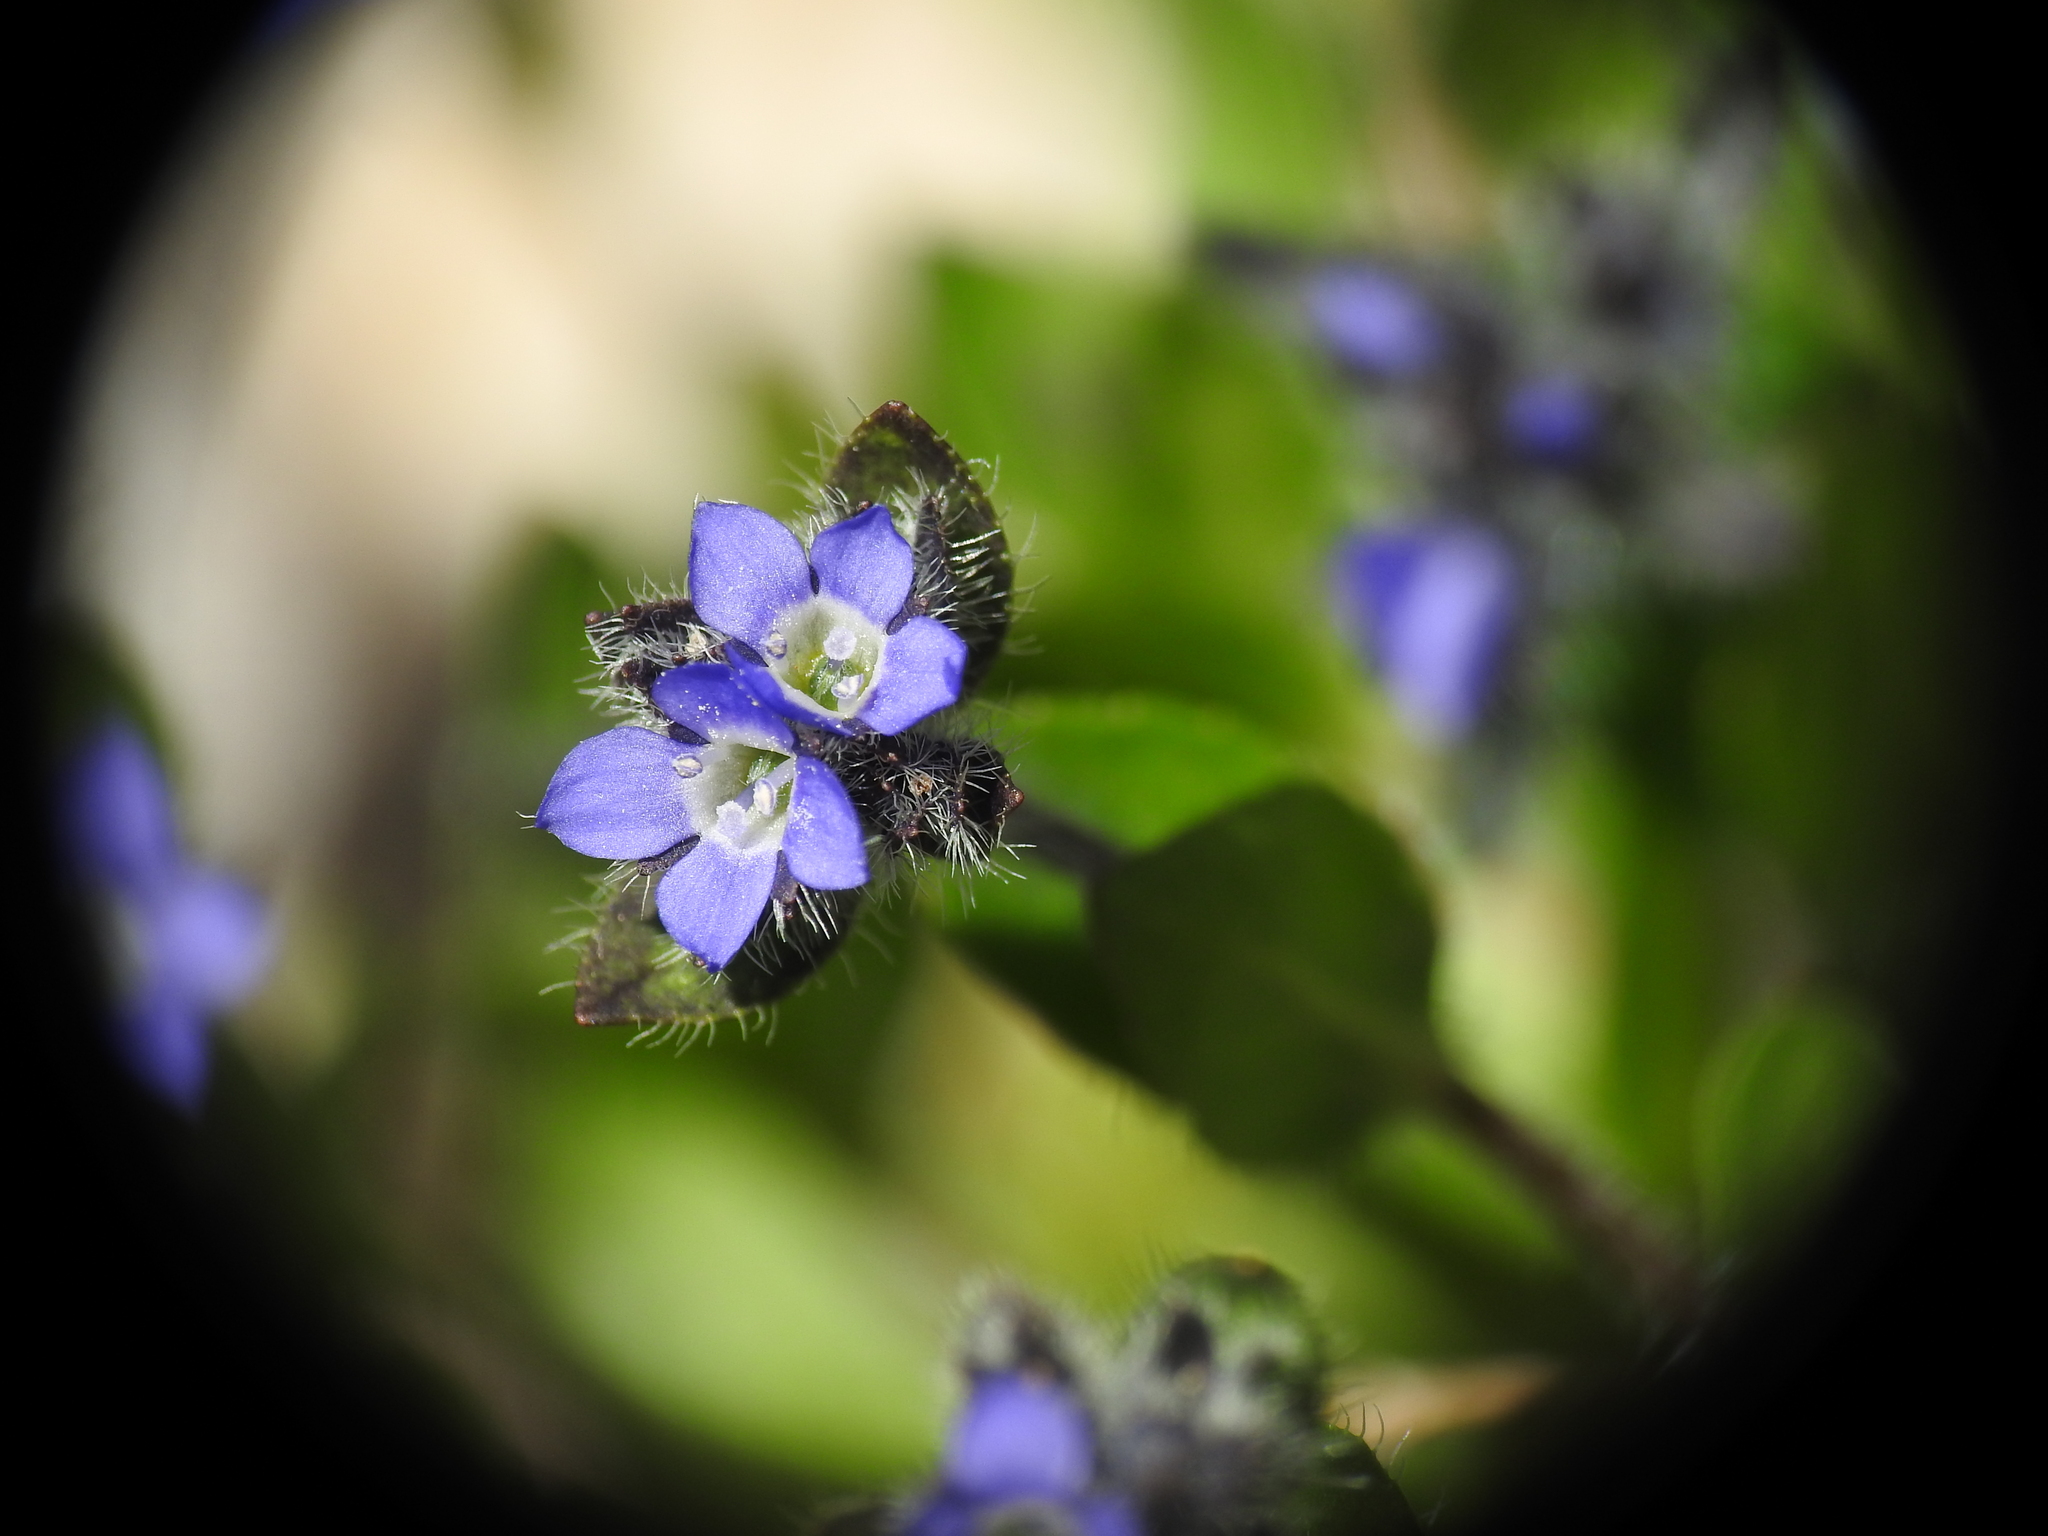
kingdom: Plantae
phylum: Tracheophyta
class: Magnoliopsida
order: Lamiales
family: Plantaginaceae
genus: Veronica
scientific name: Veronica alpina
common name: Alpine speedwell
